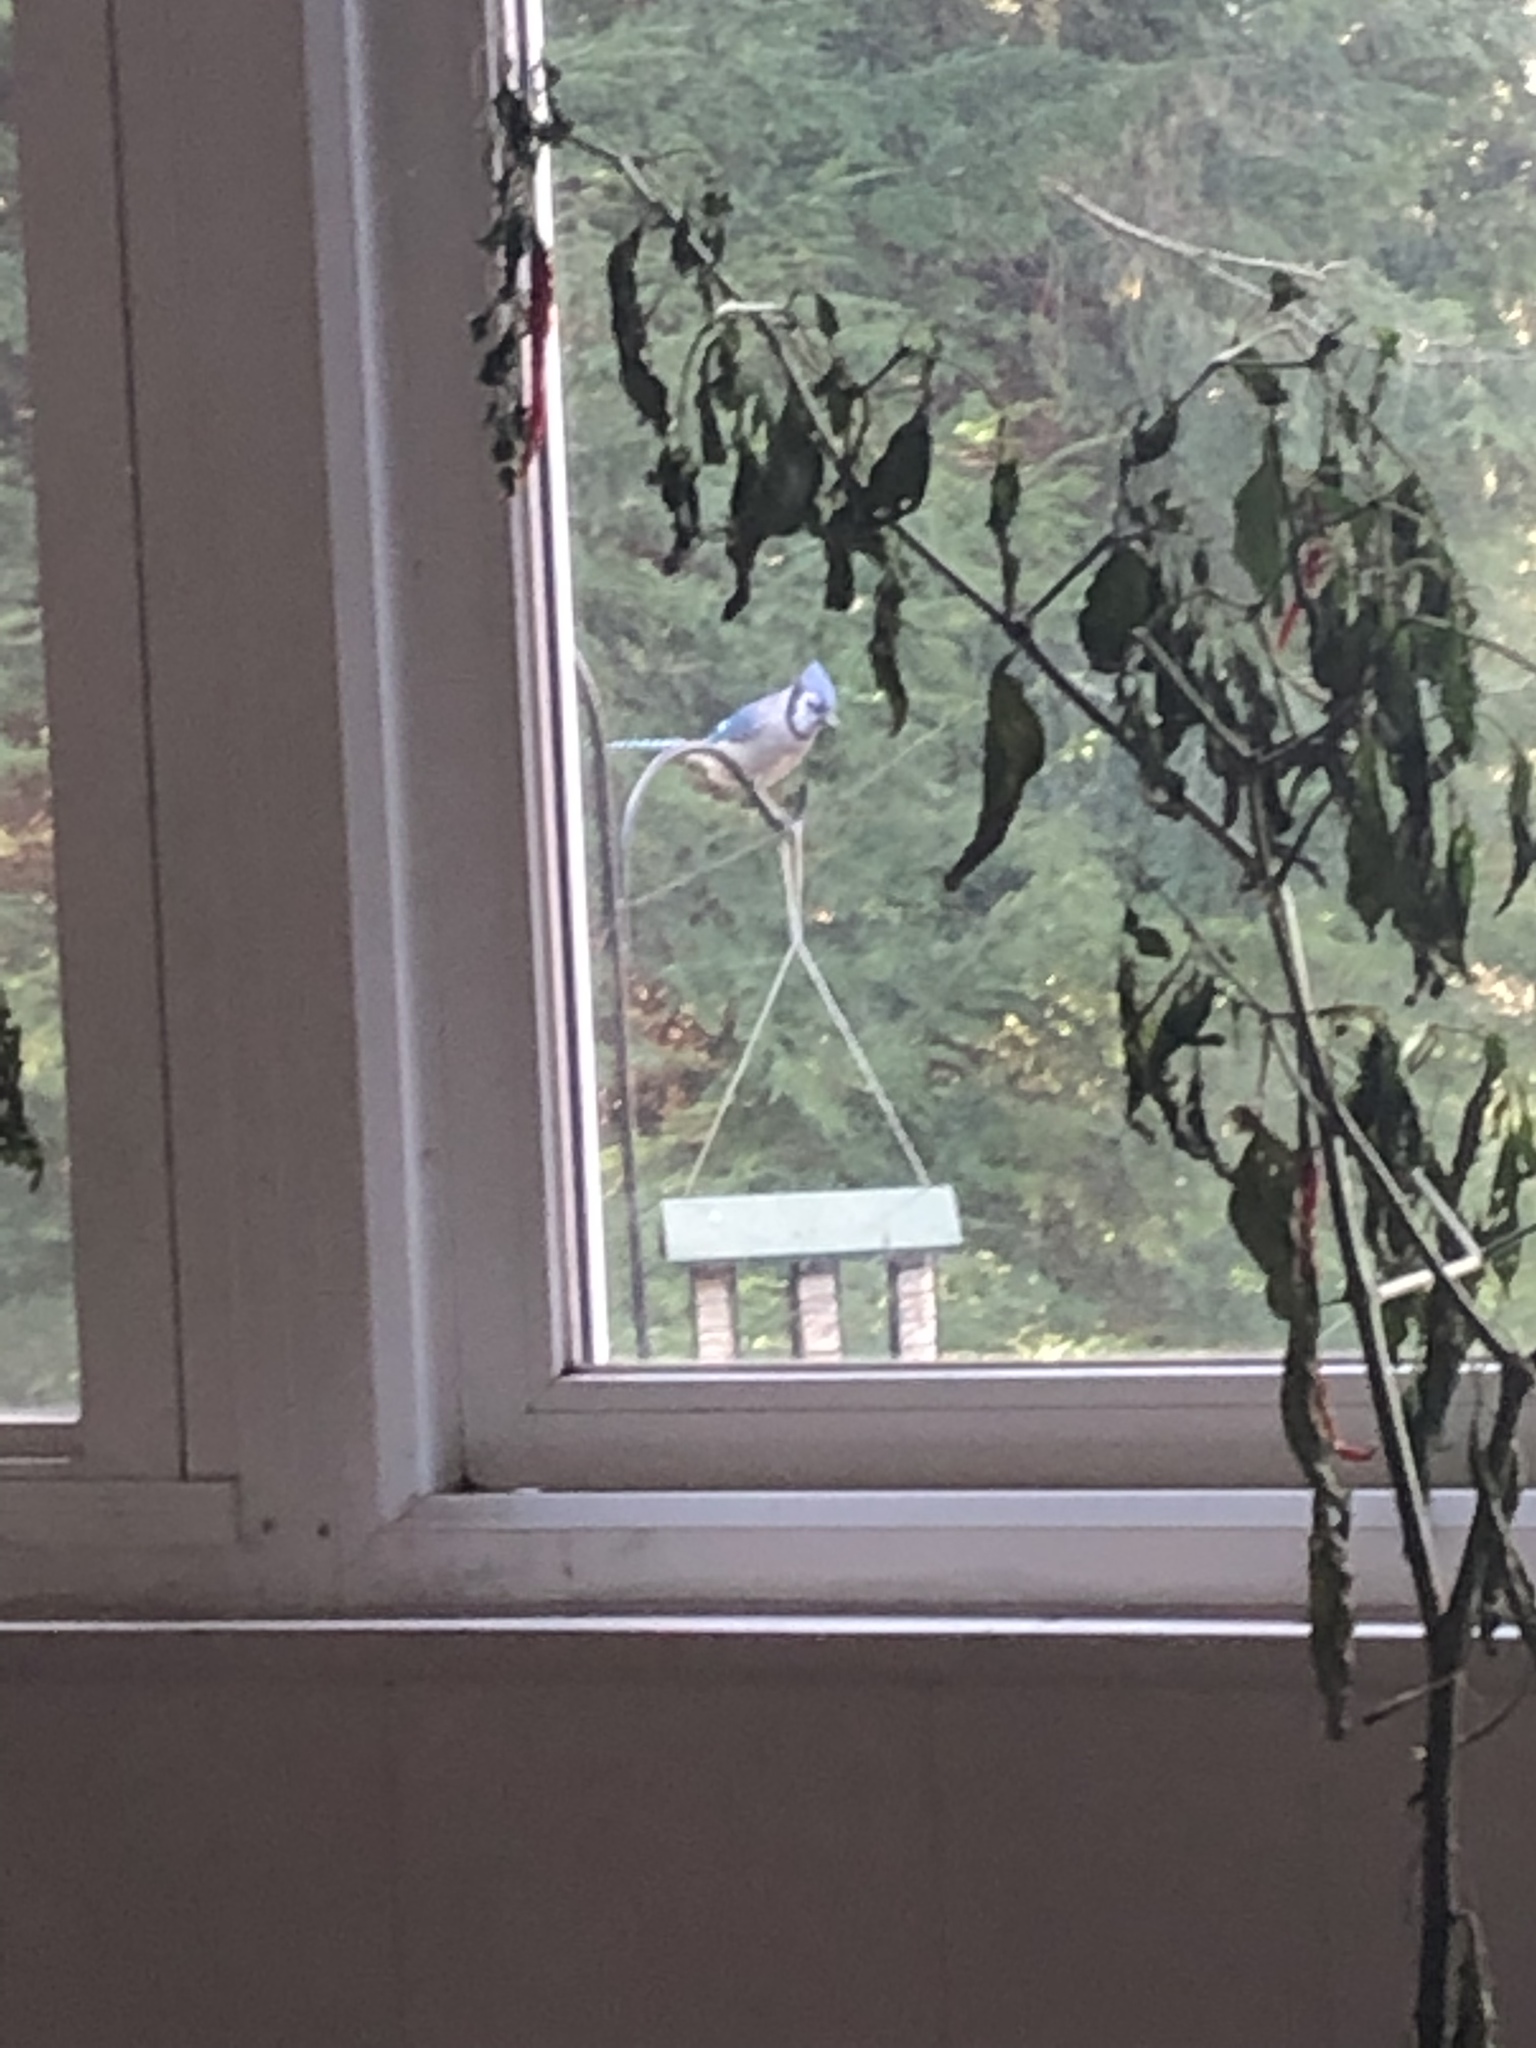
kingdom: Animalia
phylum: Chordata
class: Aves
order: Passeriformes
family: Corvidae
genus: Cyanocitta
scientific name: Cyanocitta cristata
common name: Blue jay
